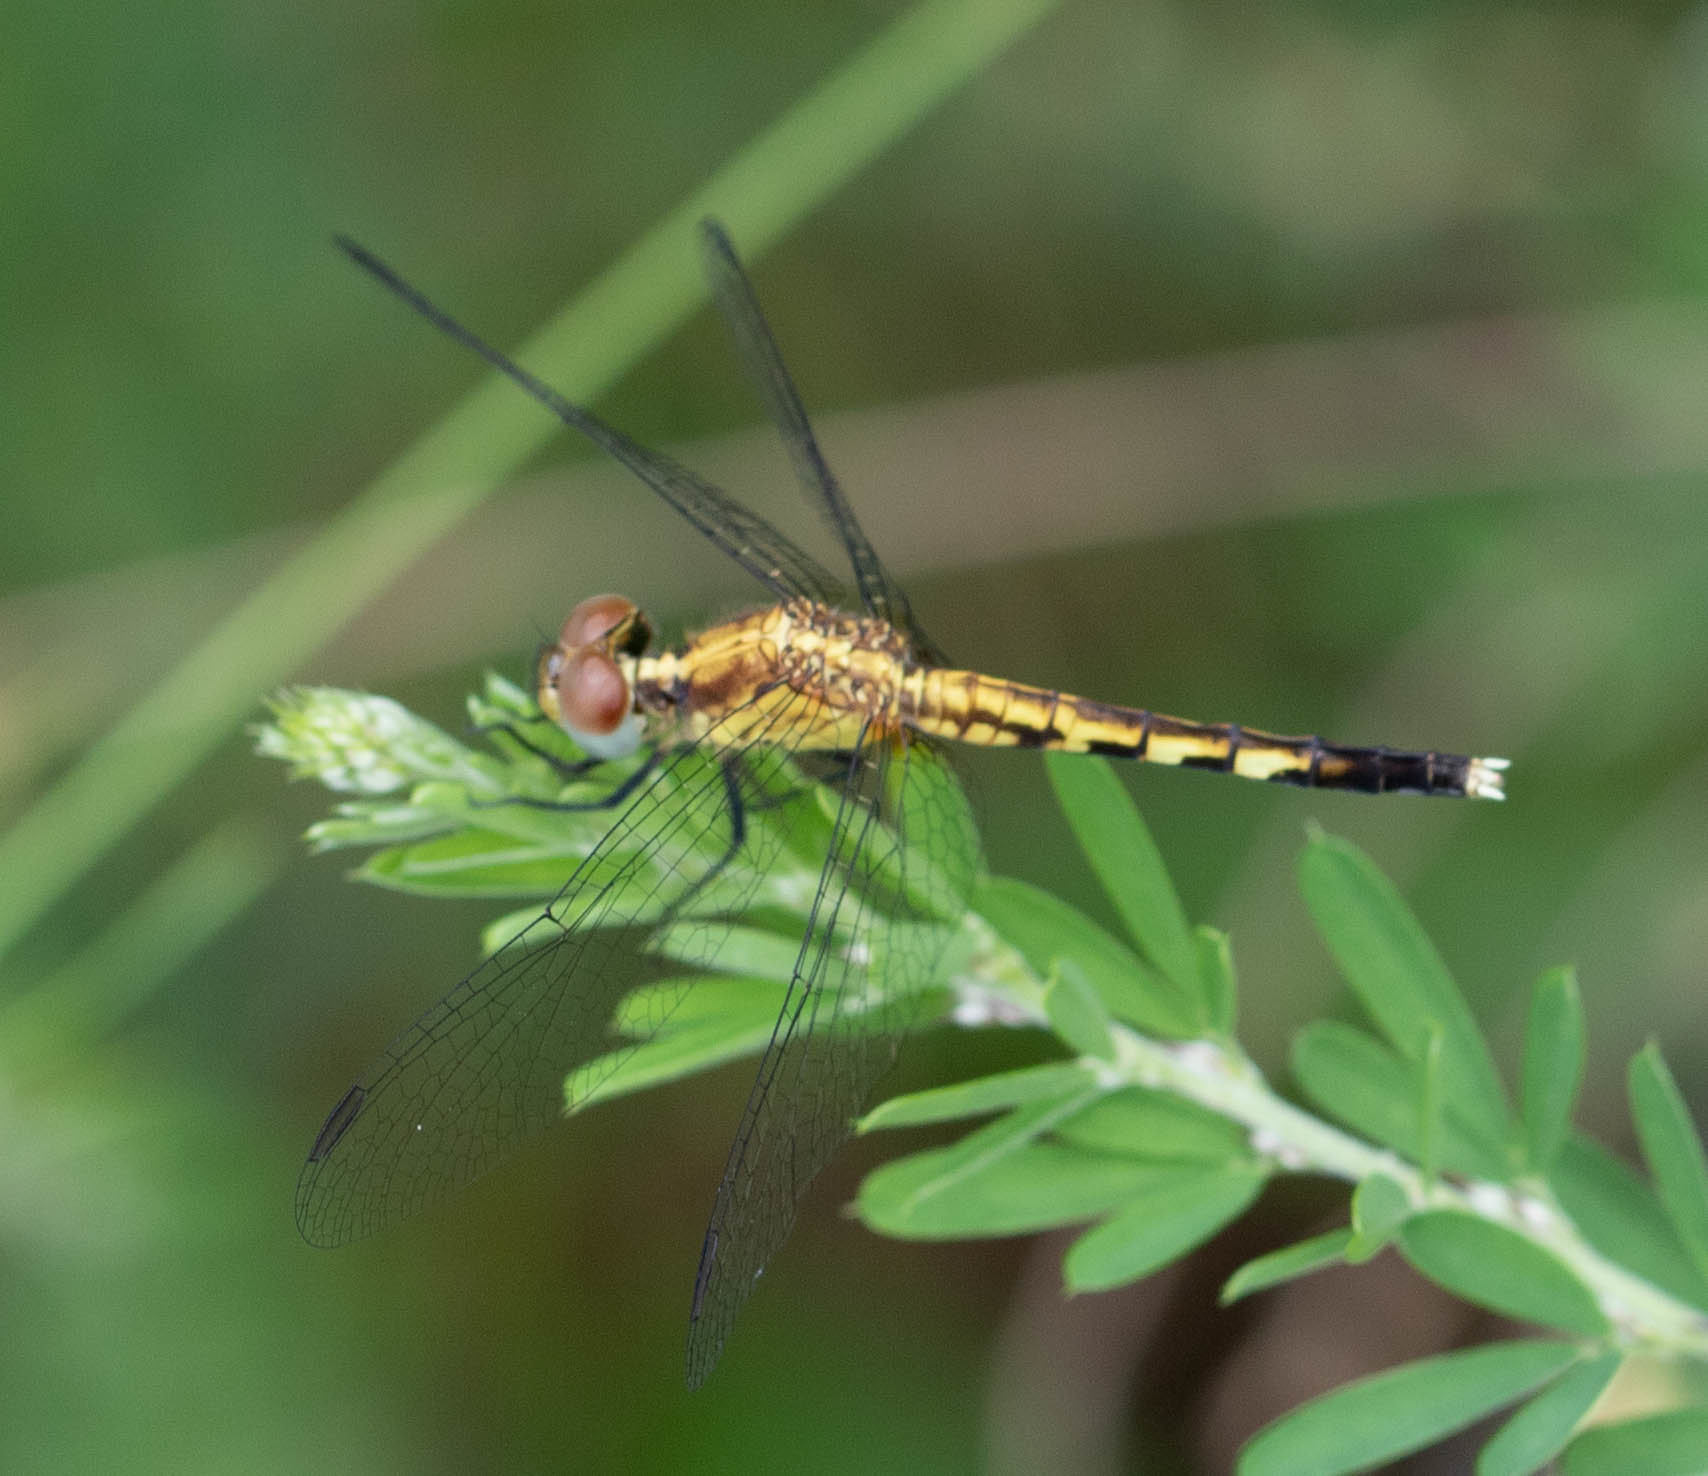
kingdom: Animalia
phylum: Arthropoda
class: Insecta
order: Odonata
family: Libellulidae
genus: Erythrodiplax
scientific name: Erythrodiplax minuscula
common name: Little blue dragonlet
